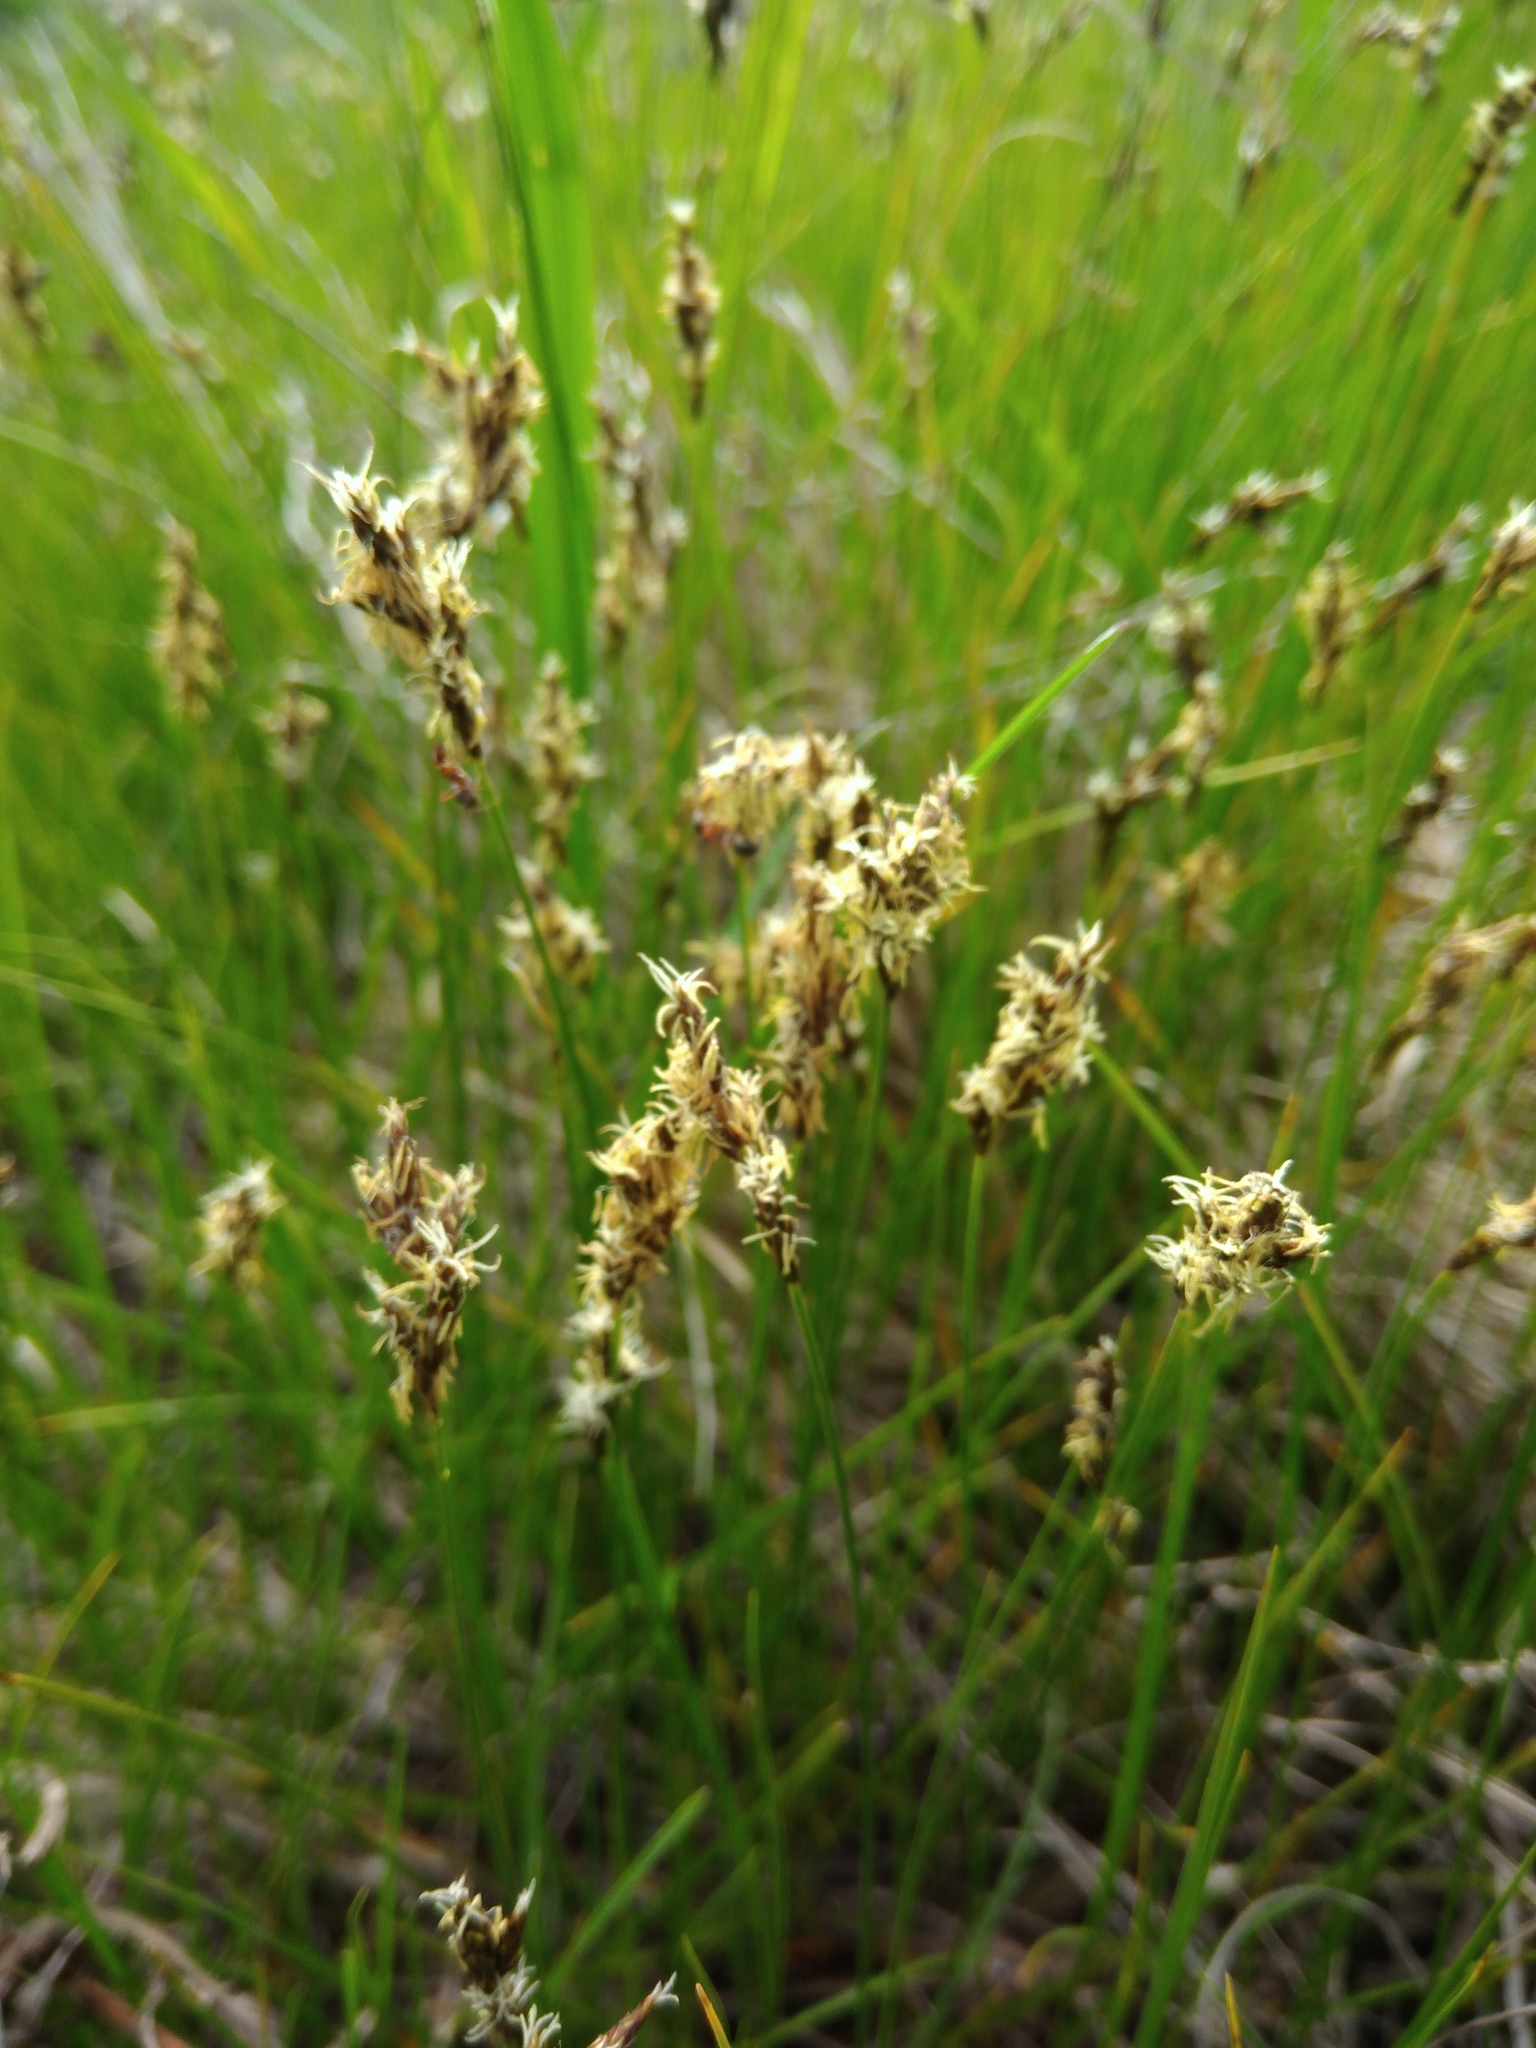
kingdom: Plantae
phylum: Tracheophyta
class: Liliopsida
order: Poales
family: Cyperaceae
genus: Carex
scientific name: Carex praecox
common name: Early sedge
